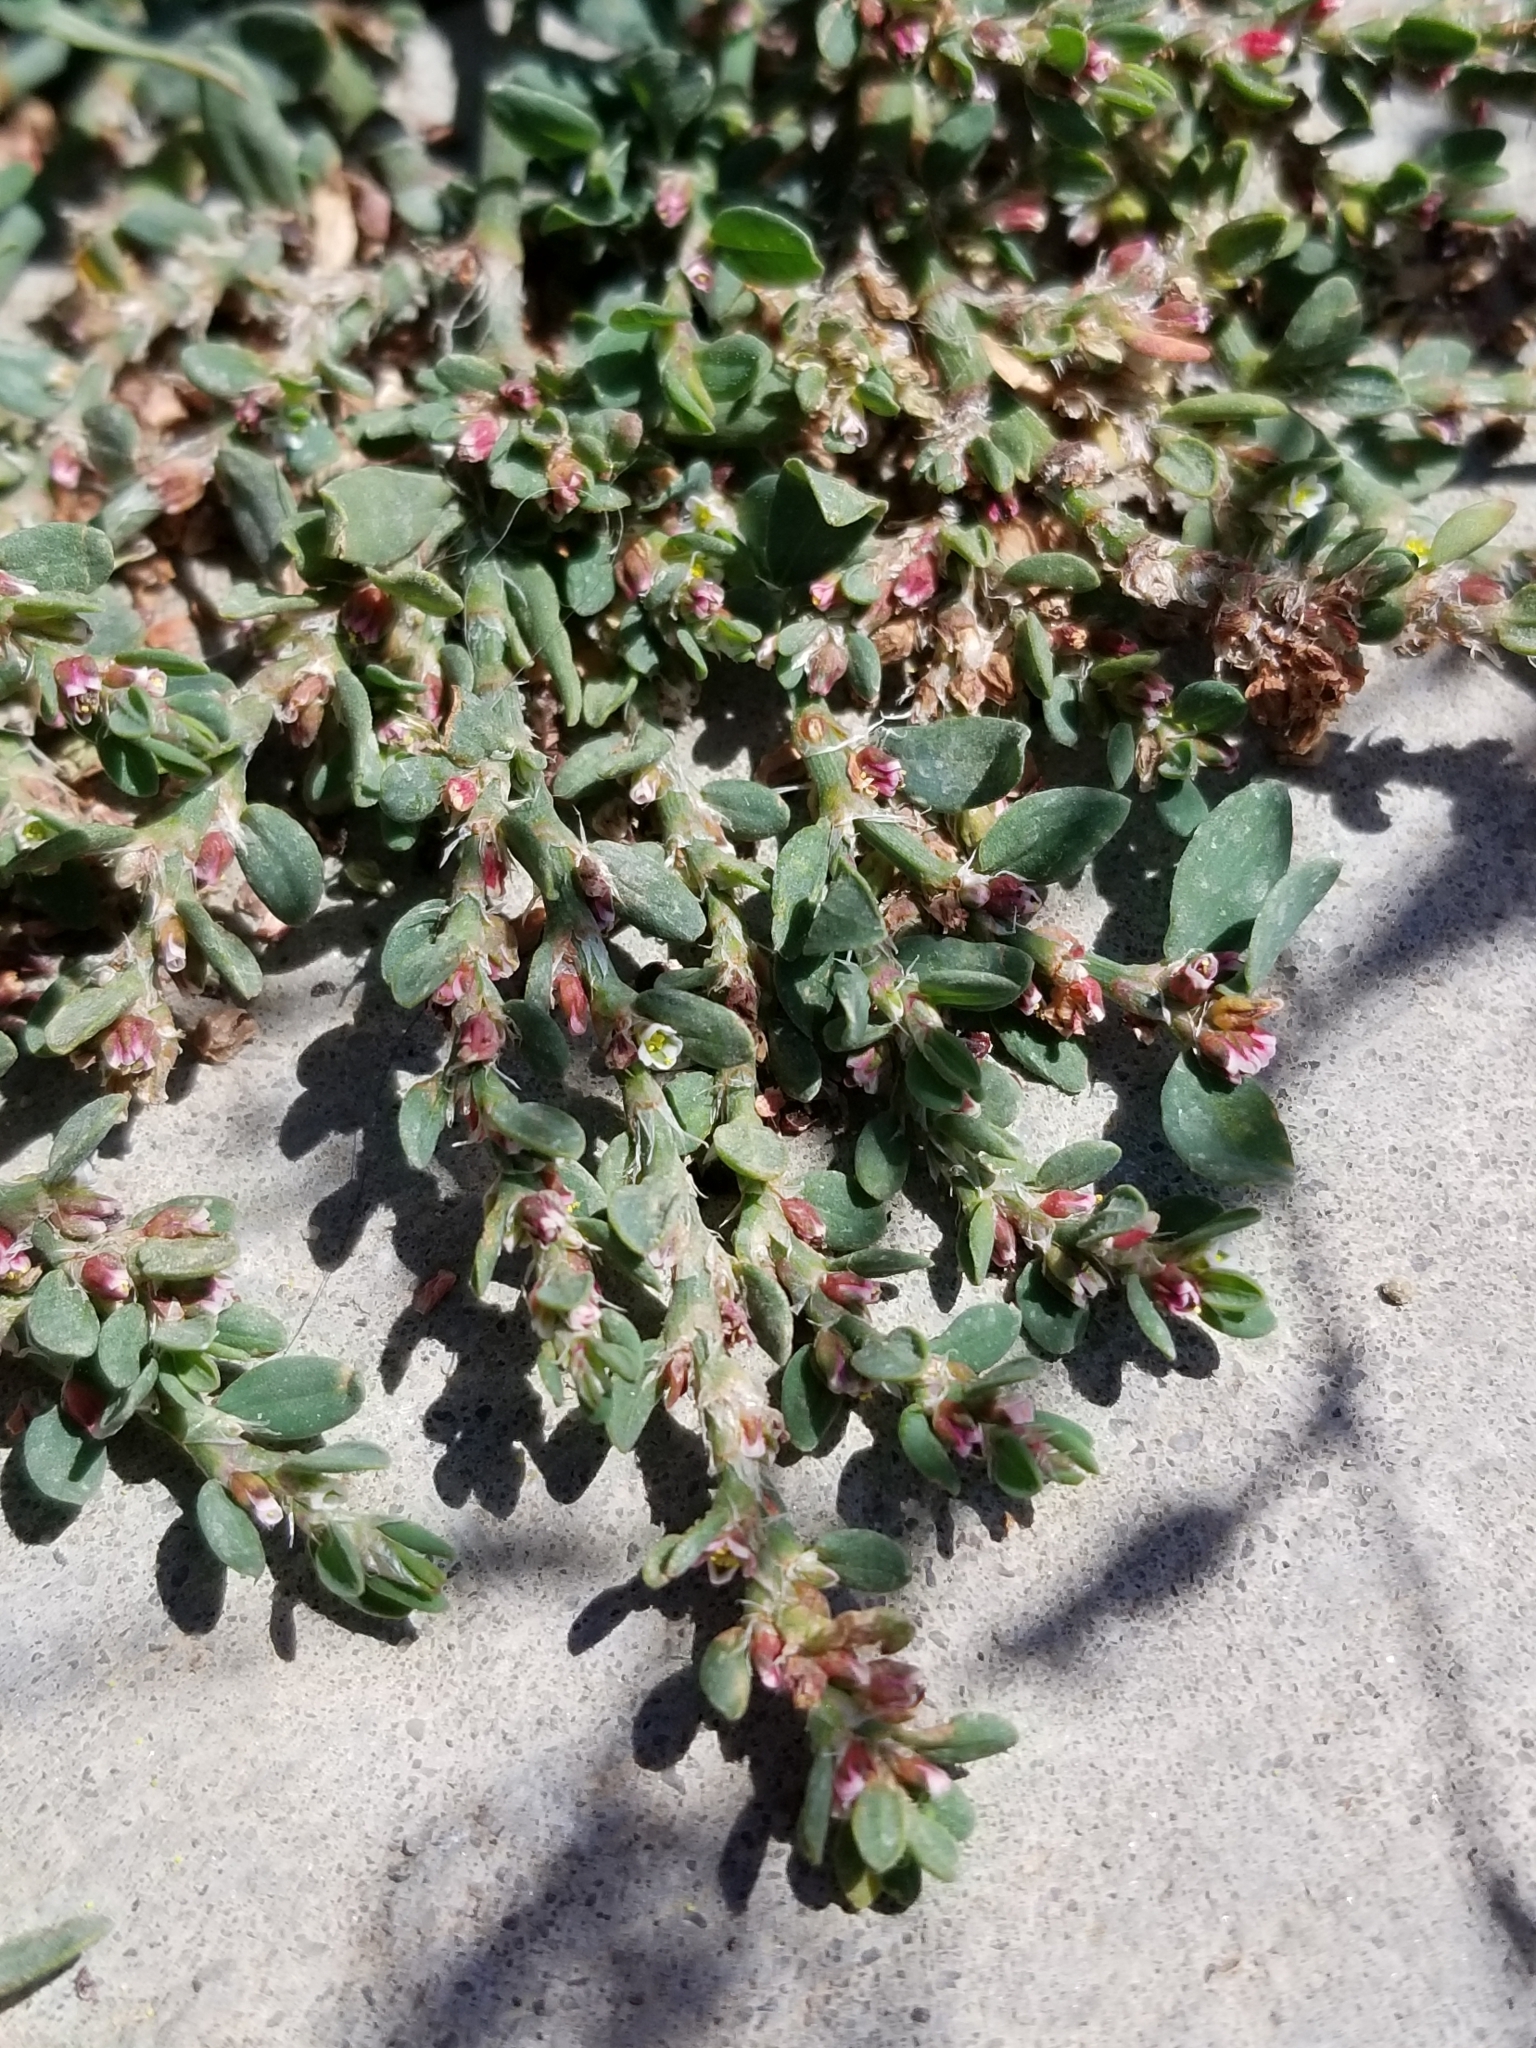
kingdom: Plantae
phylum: Tracheophyta
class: Magnoliopsida
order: Caryophyllales
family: Polygonaceae
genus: Polygonum
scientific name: Polygonum aviculare
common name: Prostrate knotweed
